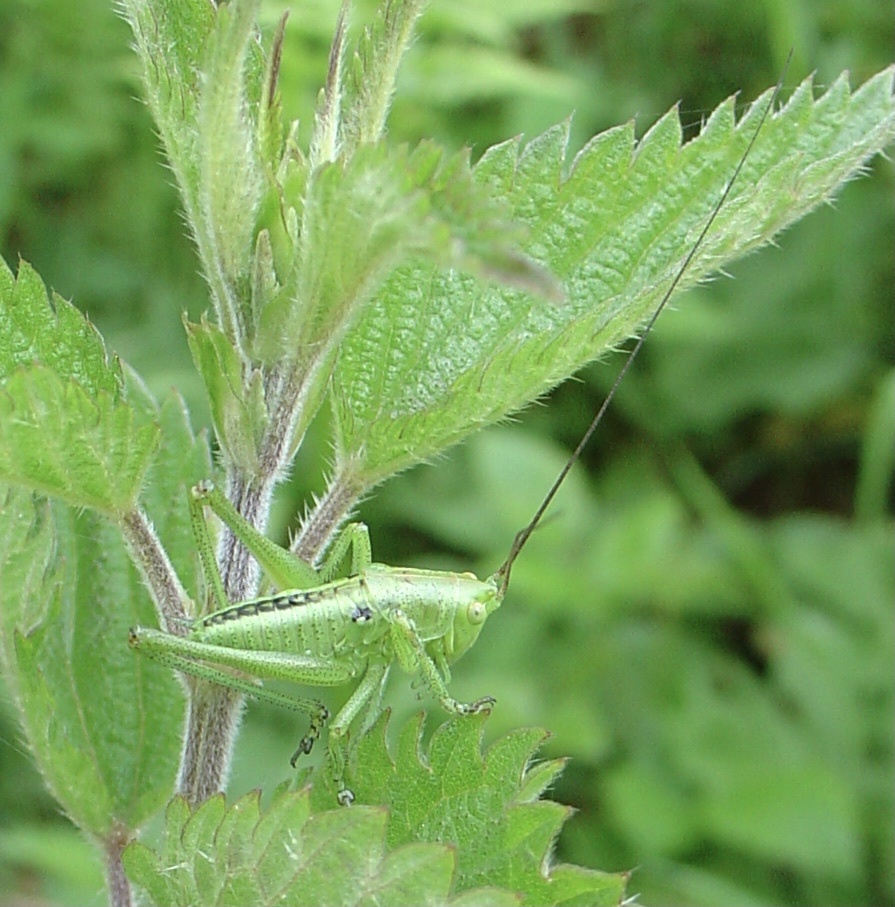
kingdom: Animalia
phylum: Arthropoda
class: Insecta
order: Orthoptera
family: Tettigoniidae
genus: Tettigonia
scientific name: Tettigonia viridissima
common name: Great green bush-cricket
